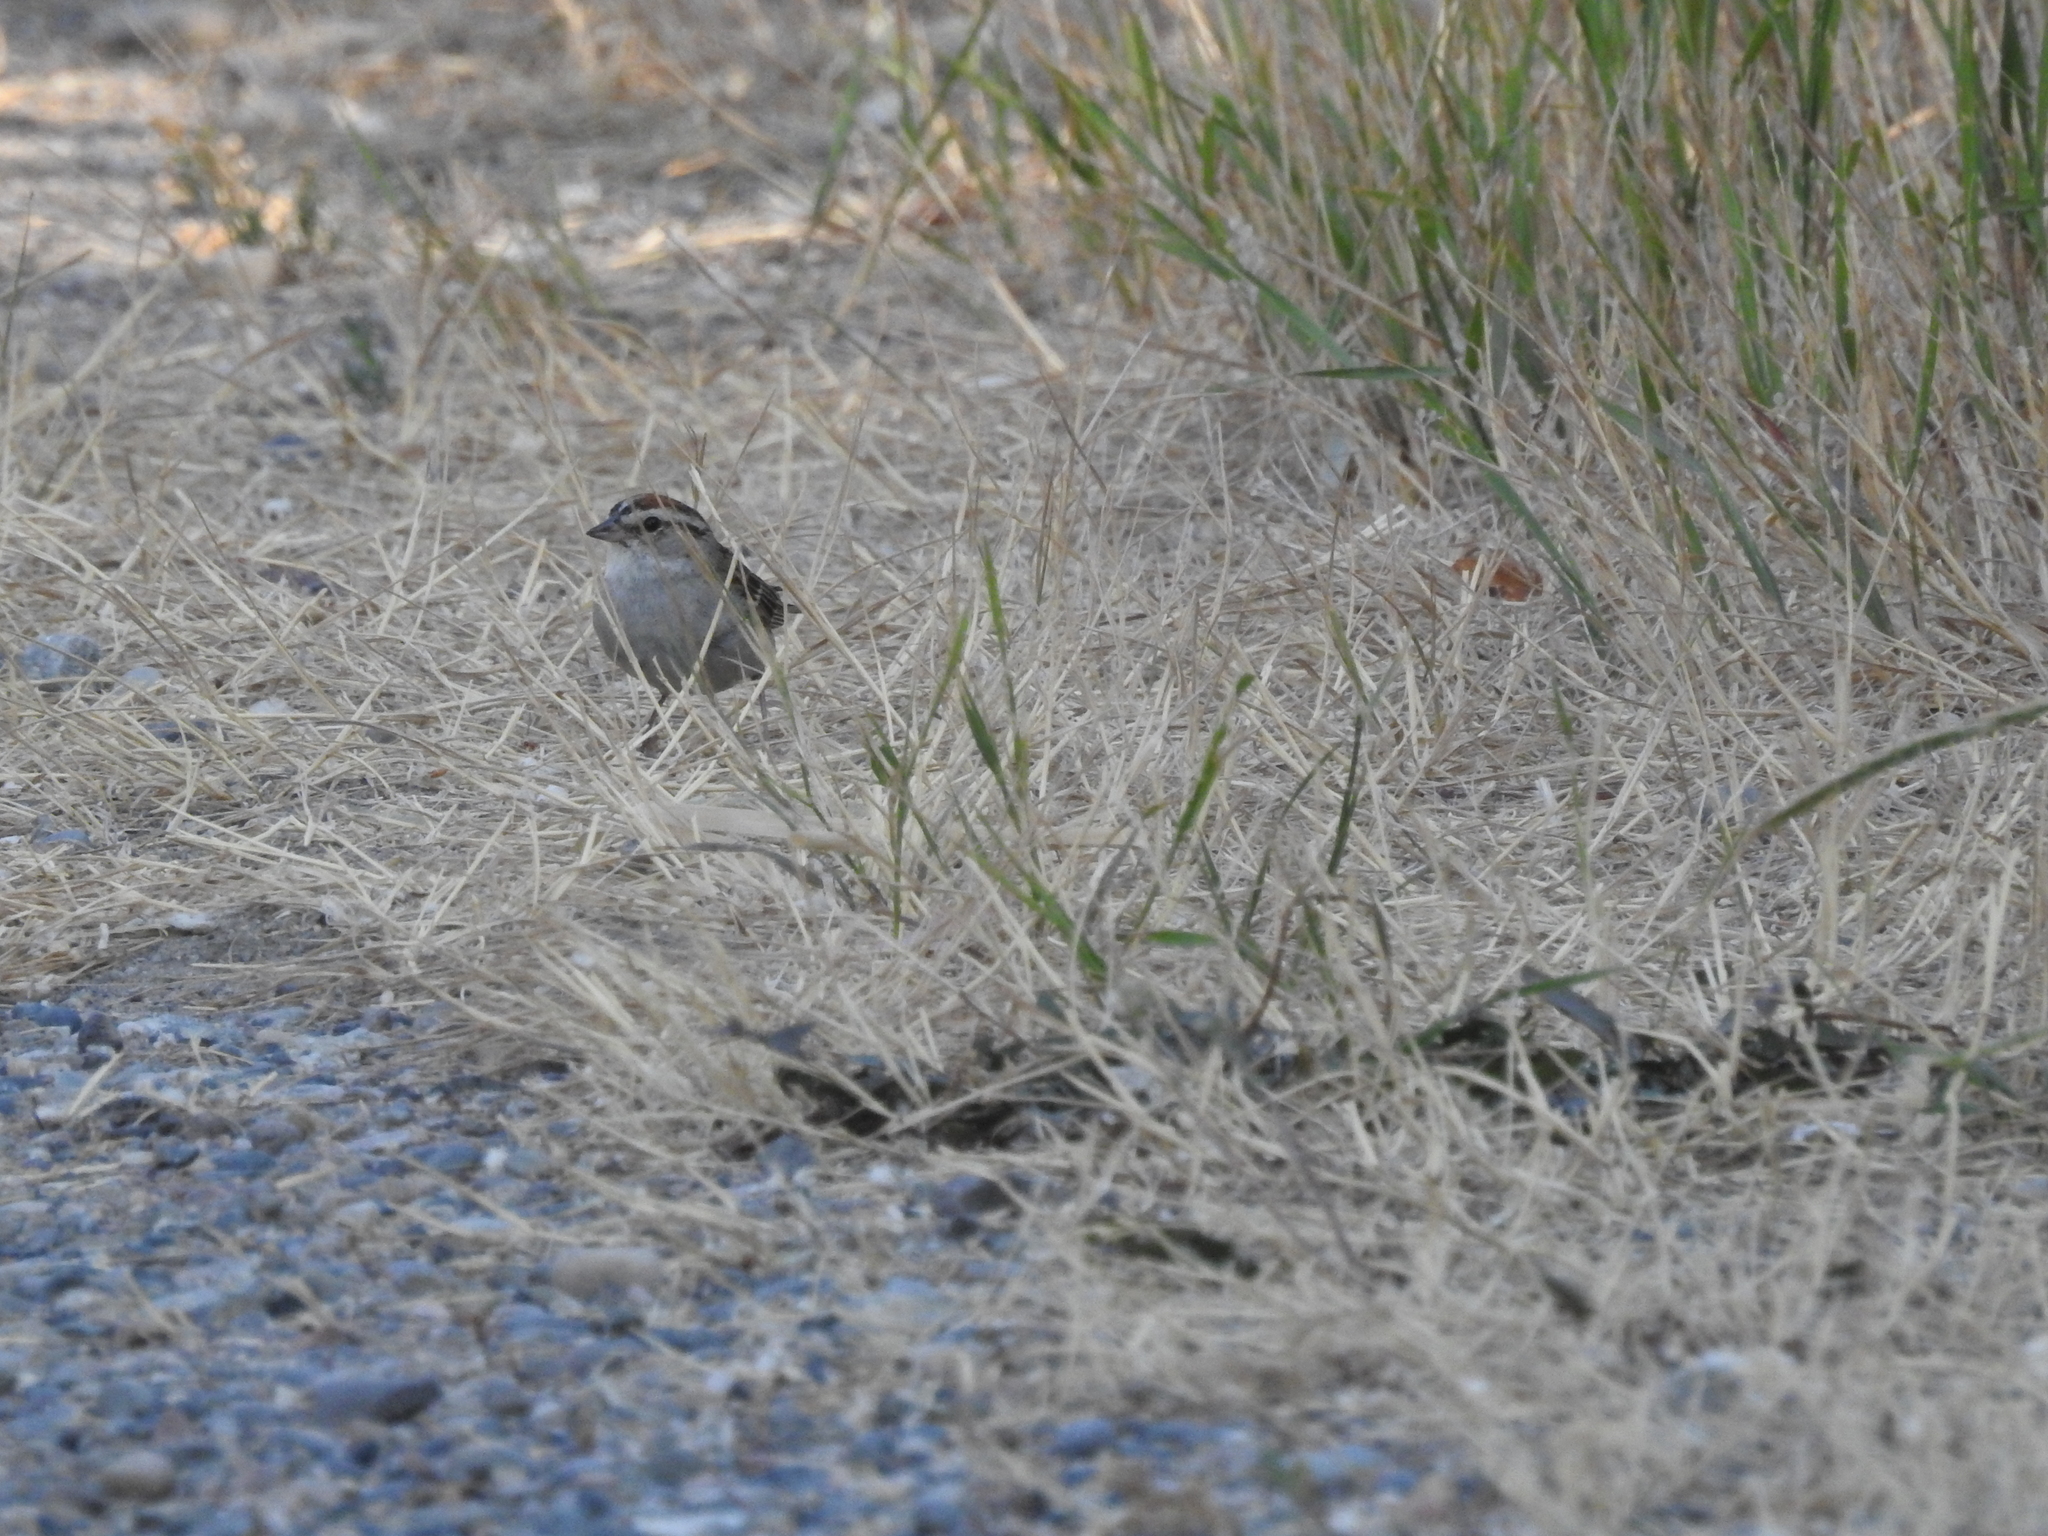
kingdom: Animalia
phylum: Chordata
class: Aves
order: Passeriformes
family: Passerellidae
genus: Spizella
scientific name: Spizella passerina
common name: Chipping sparrow
